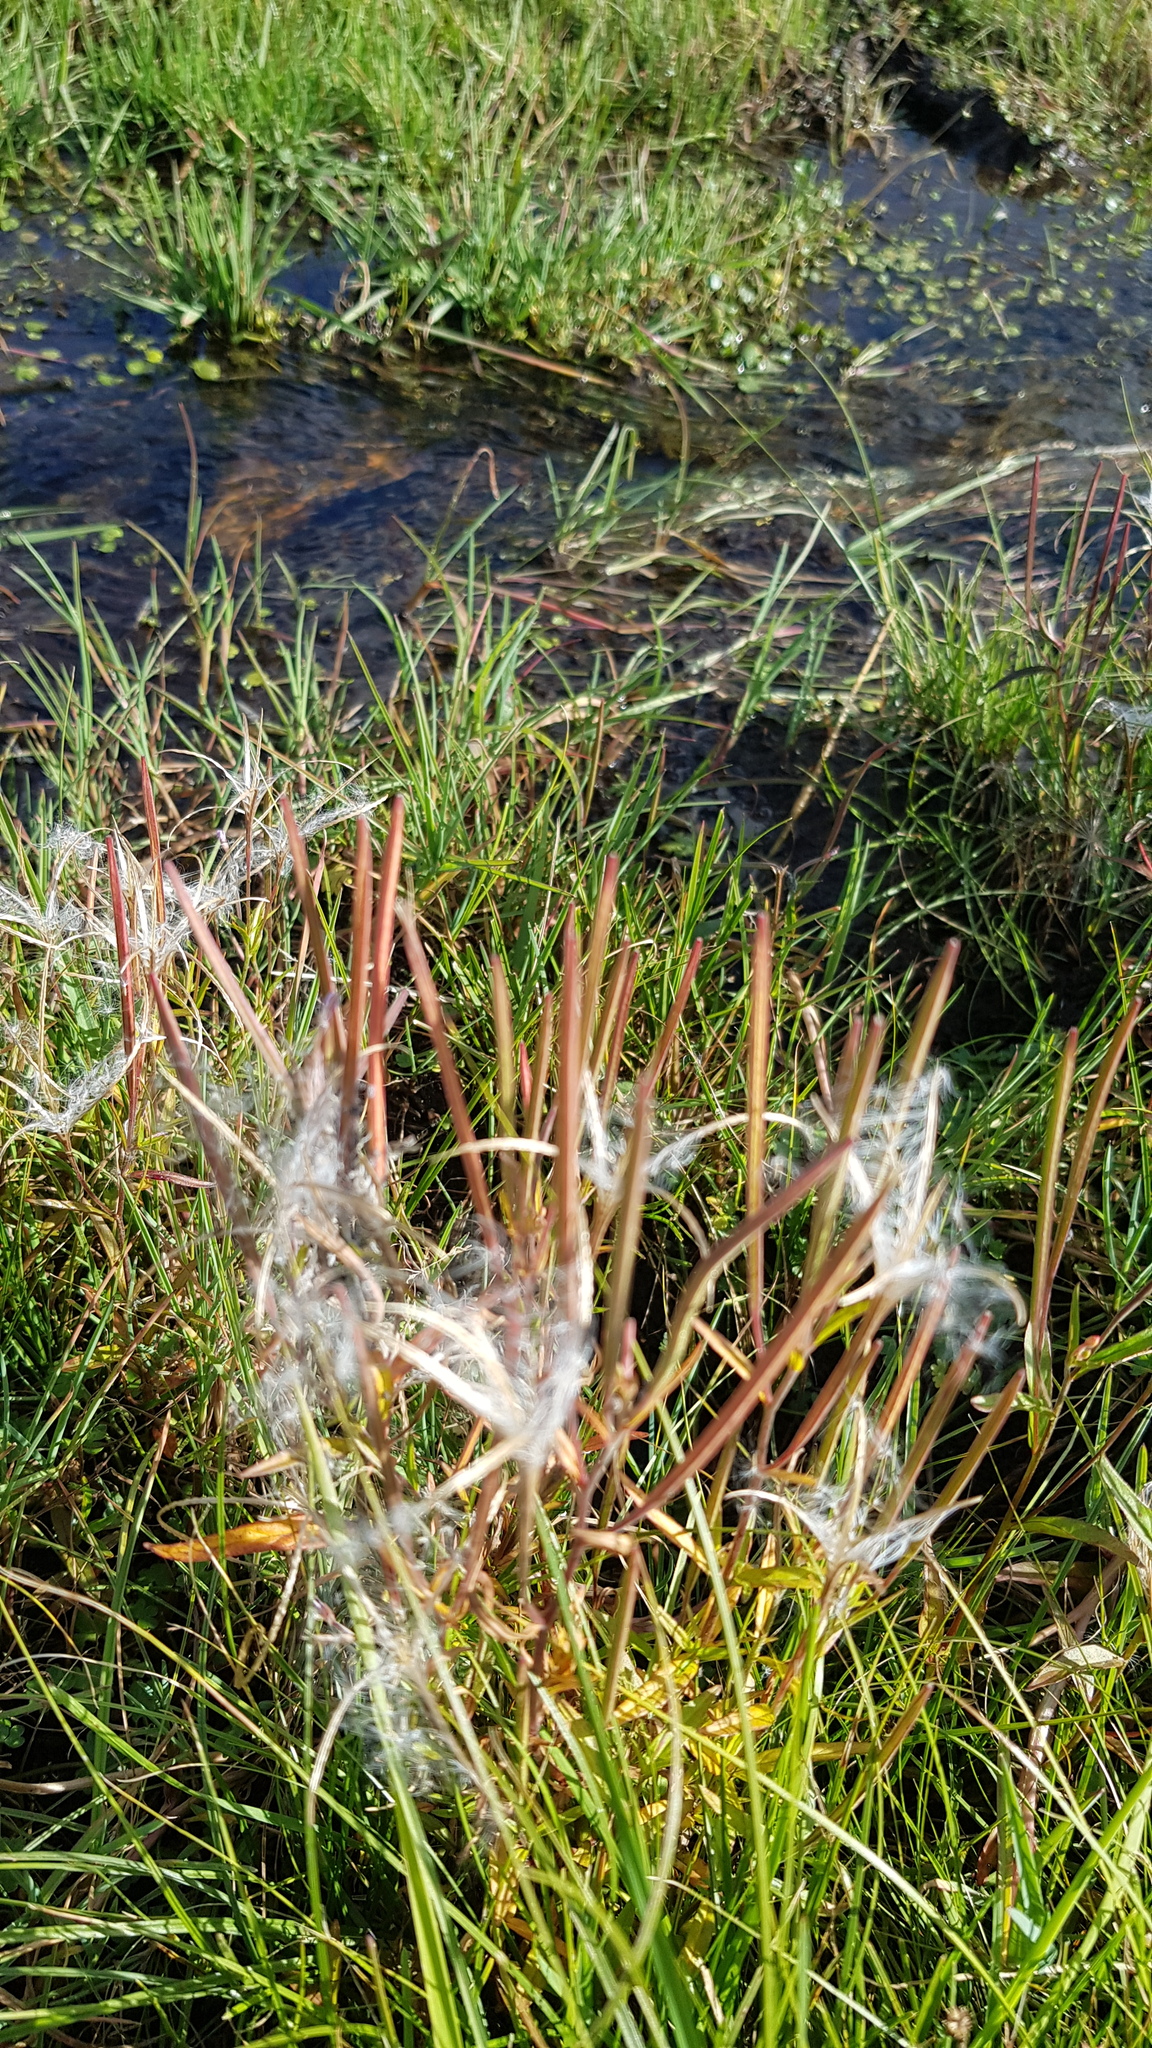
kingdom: Plantae
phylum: Tracheophyta
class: Magnoliopsida
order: Myrtales
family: Onagraceae
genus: Epilobium
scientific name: Epilobium palustre
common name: Marsh willowherb
